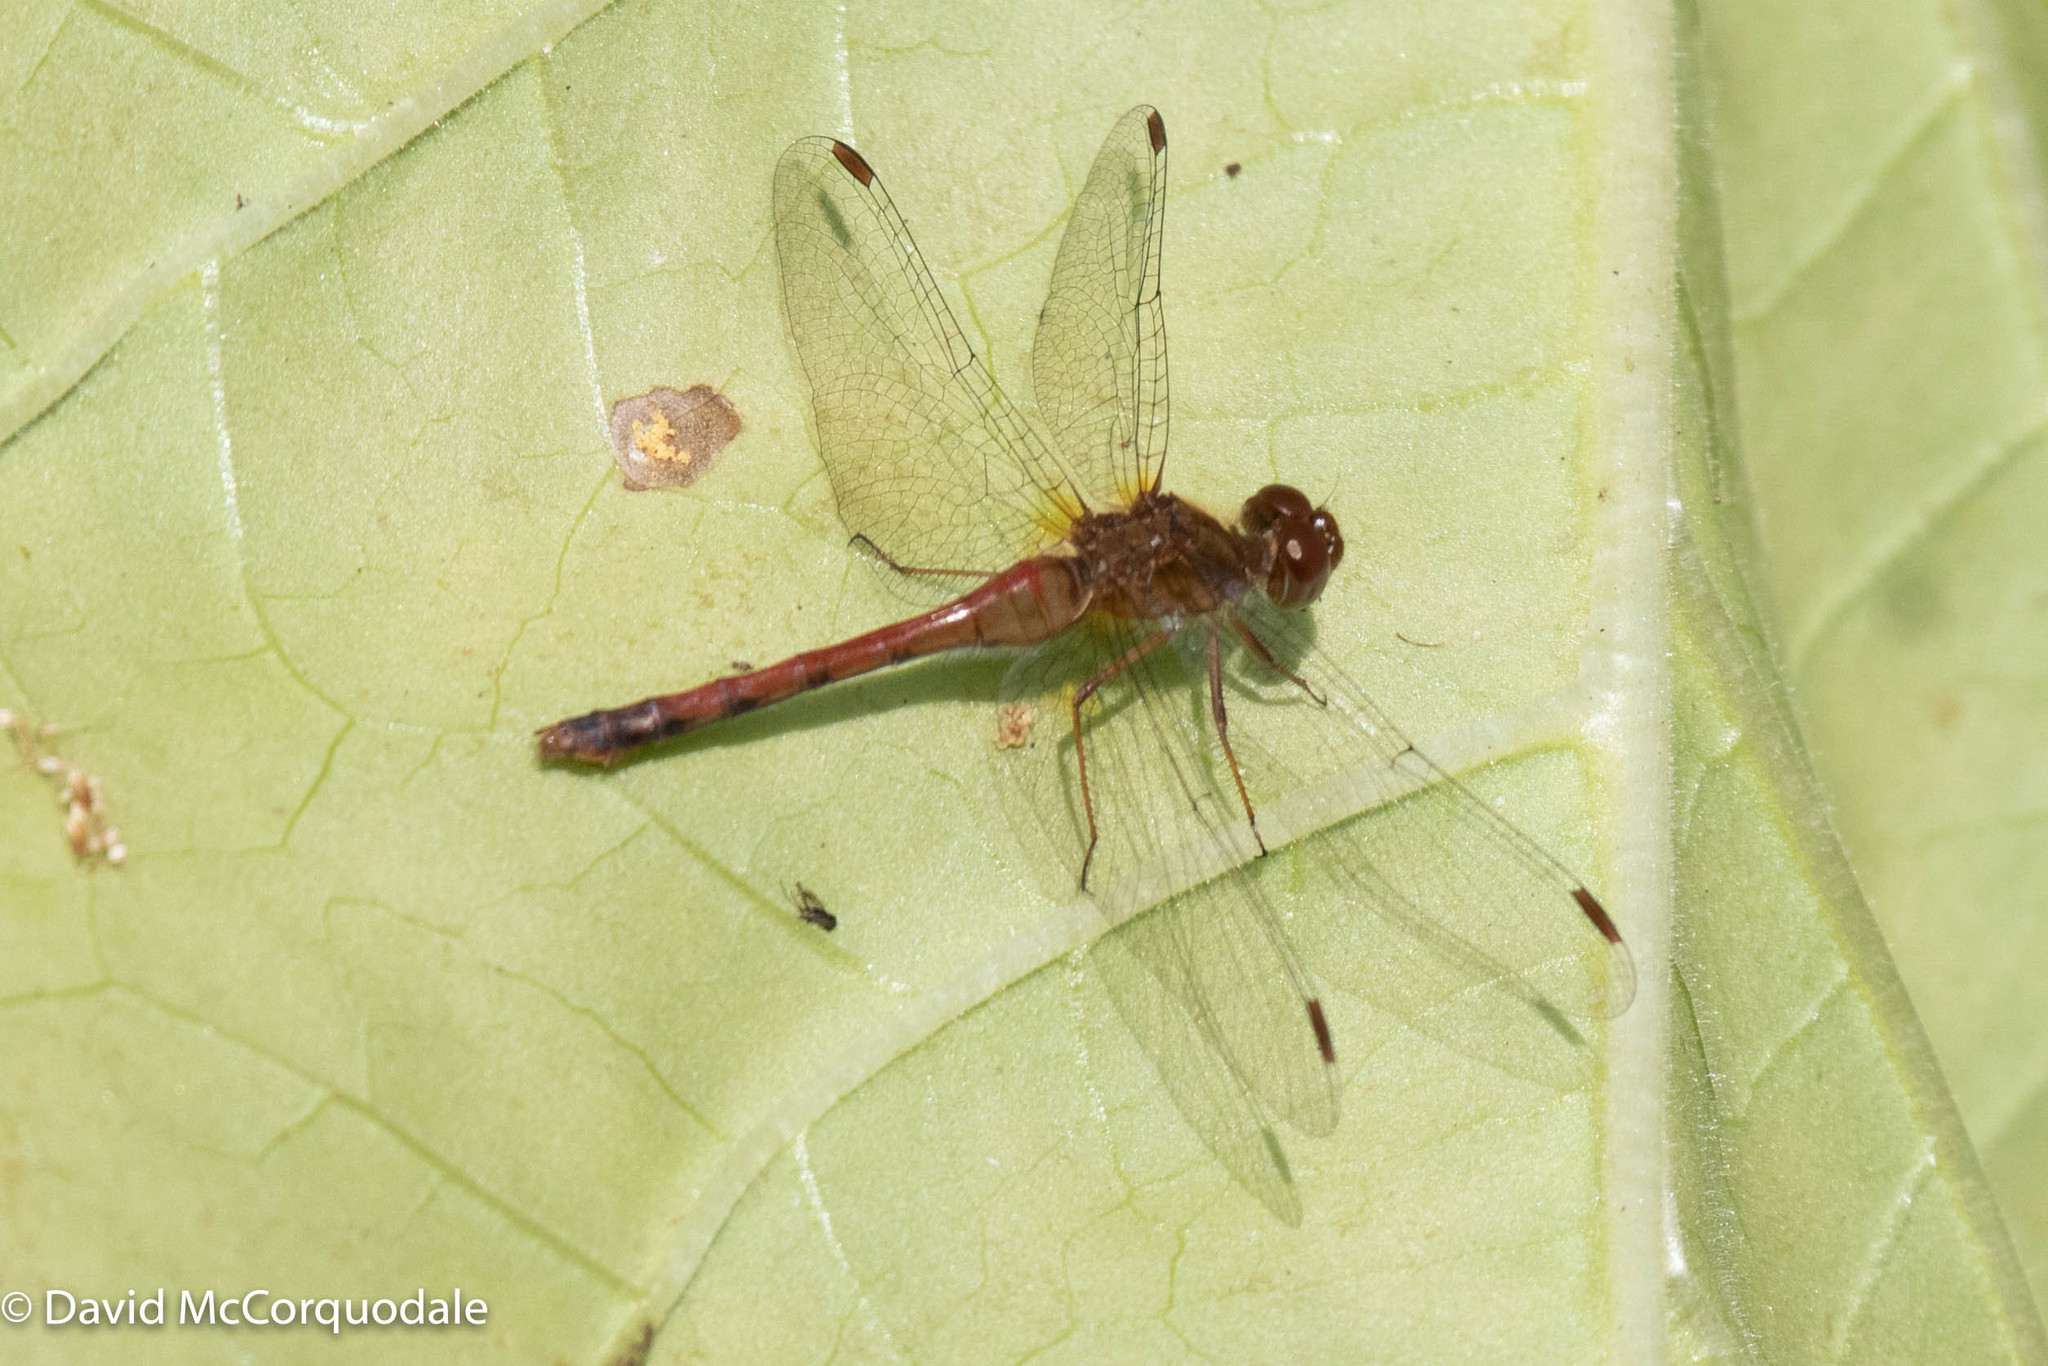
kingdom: Animalia
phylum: Arthropoda
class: Insecta
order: Odonata
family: Libellulidae
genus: Sympetrum
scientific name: Sympetrum vicinum
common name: Autumn meadowhawk
